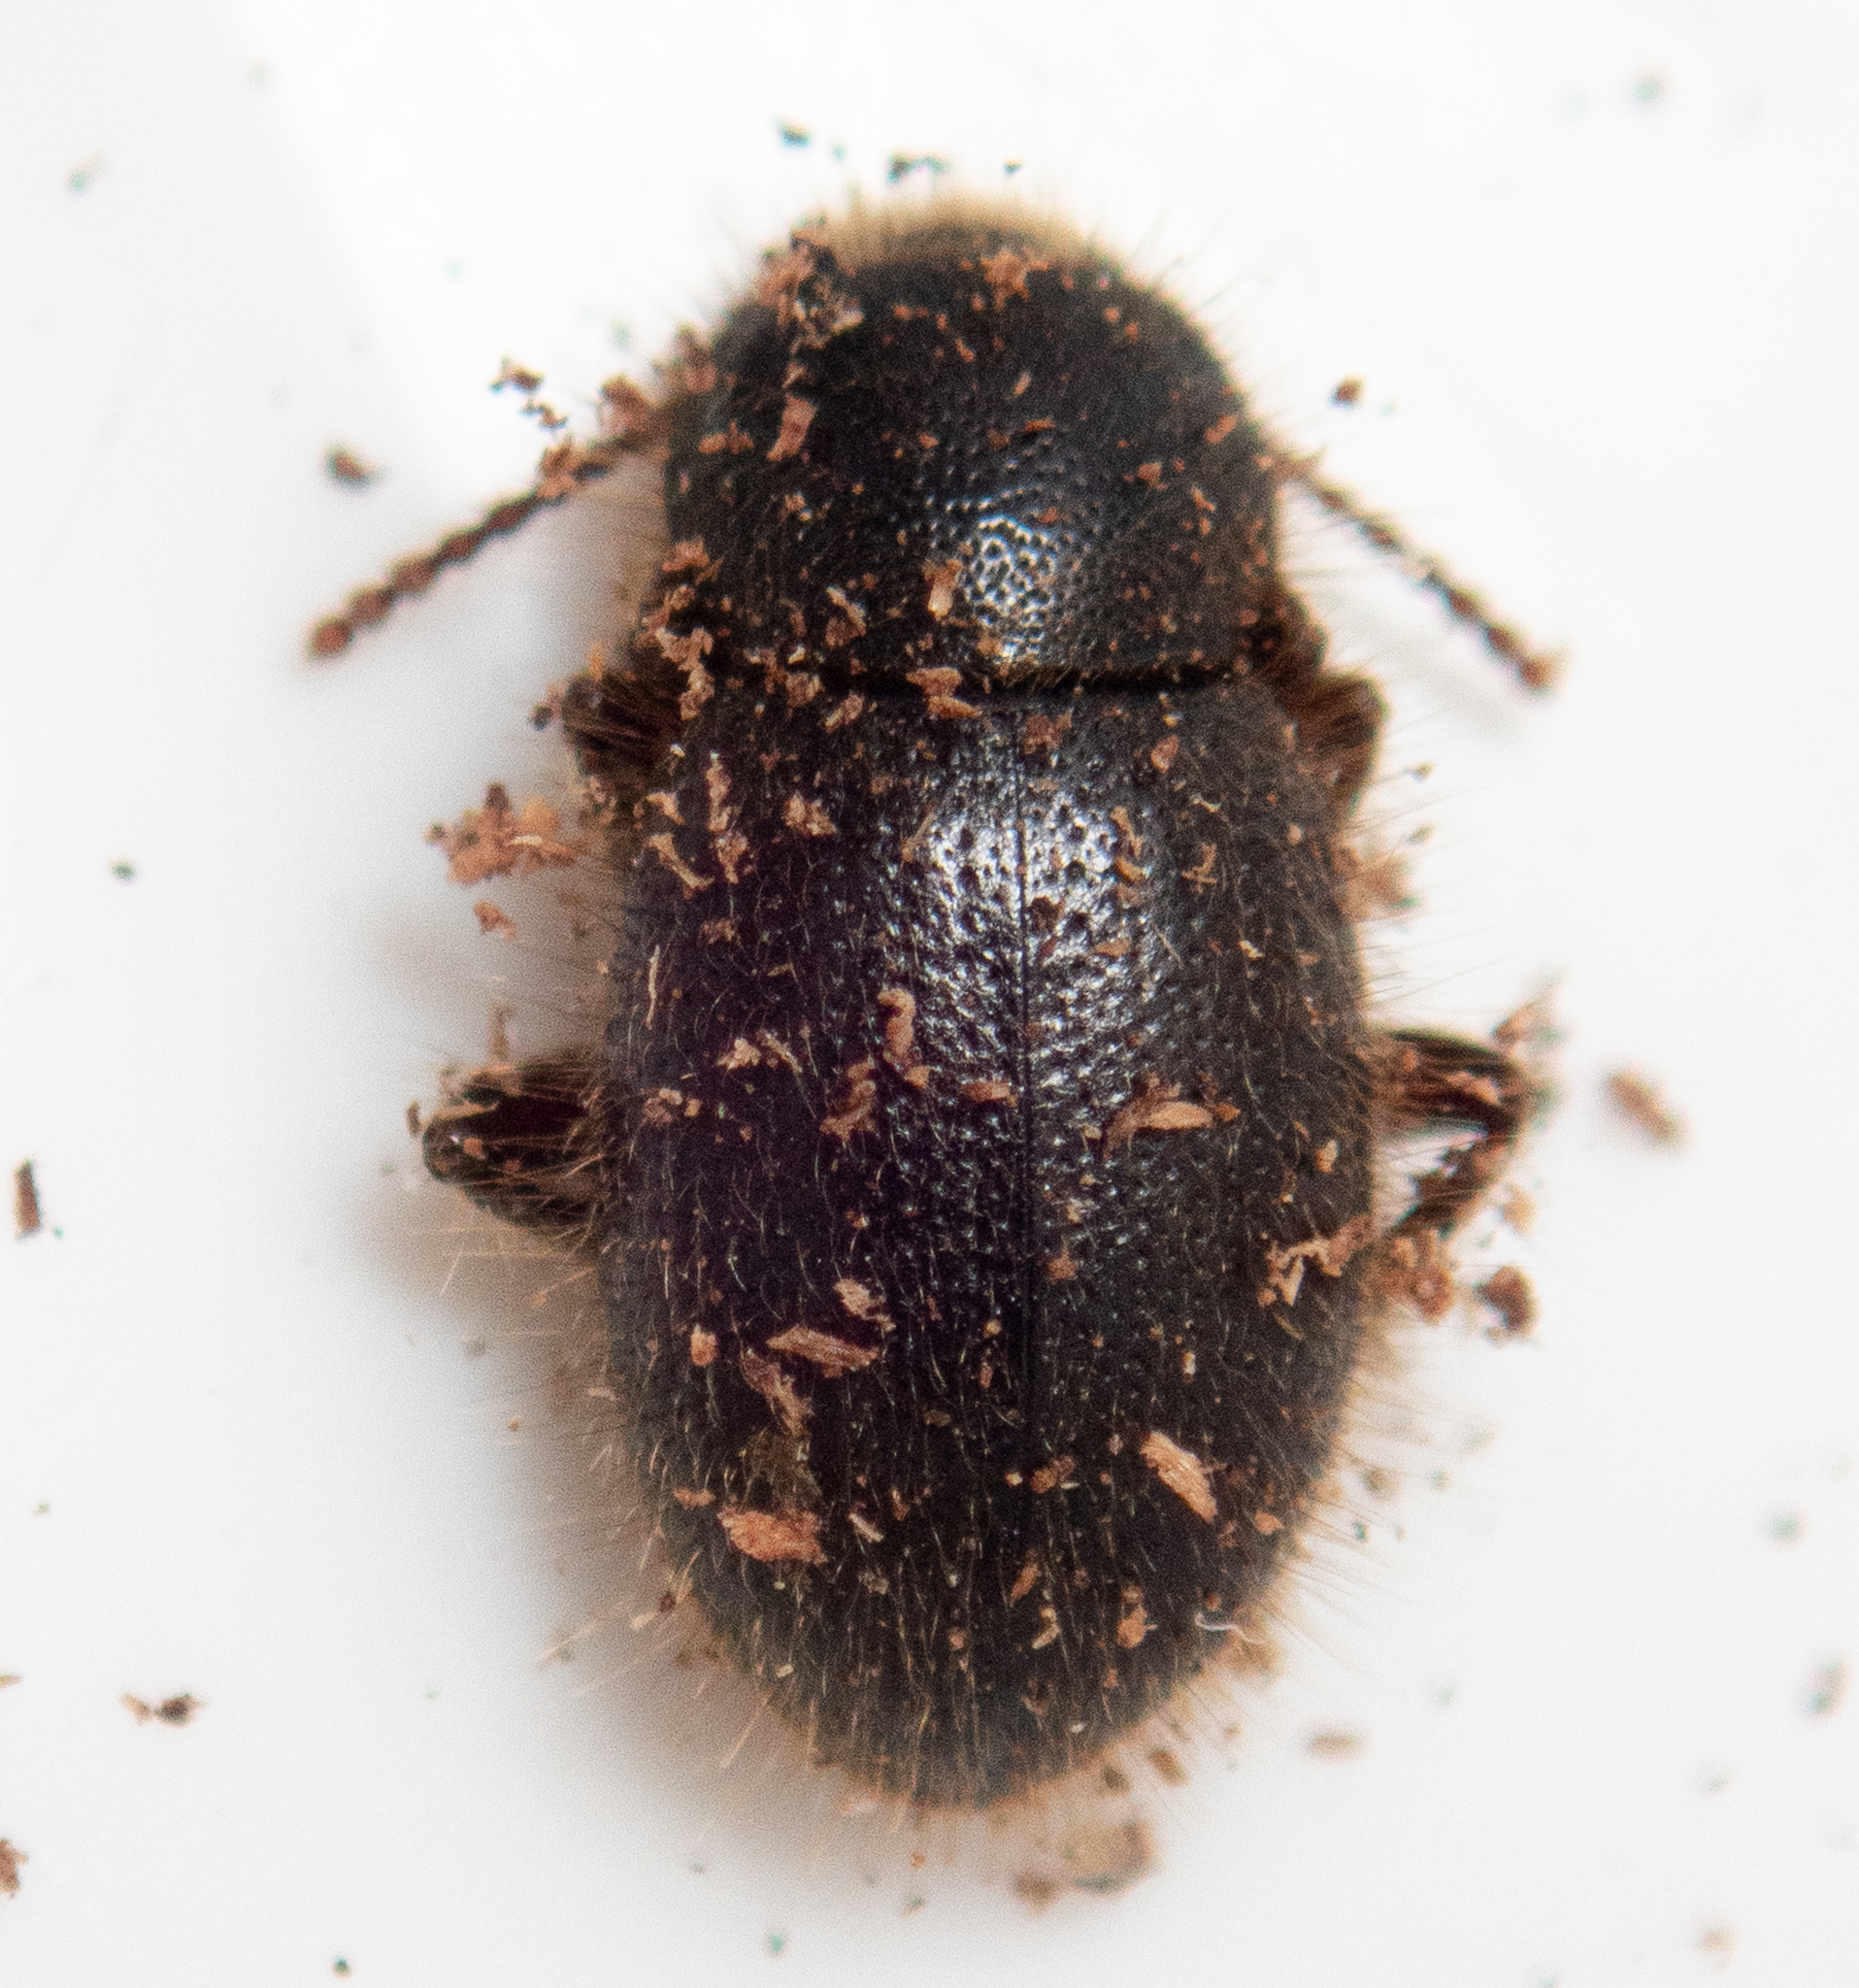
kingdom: Animalia
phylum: Arthropoda
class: Insecta
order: Coleoptera
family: Tenebrionidae
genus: Eleodes
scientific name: Eleodes littoralis
